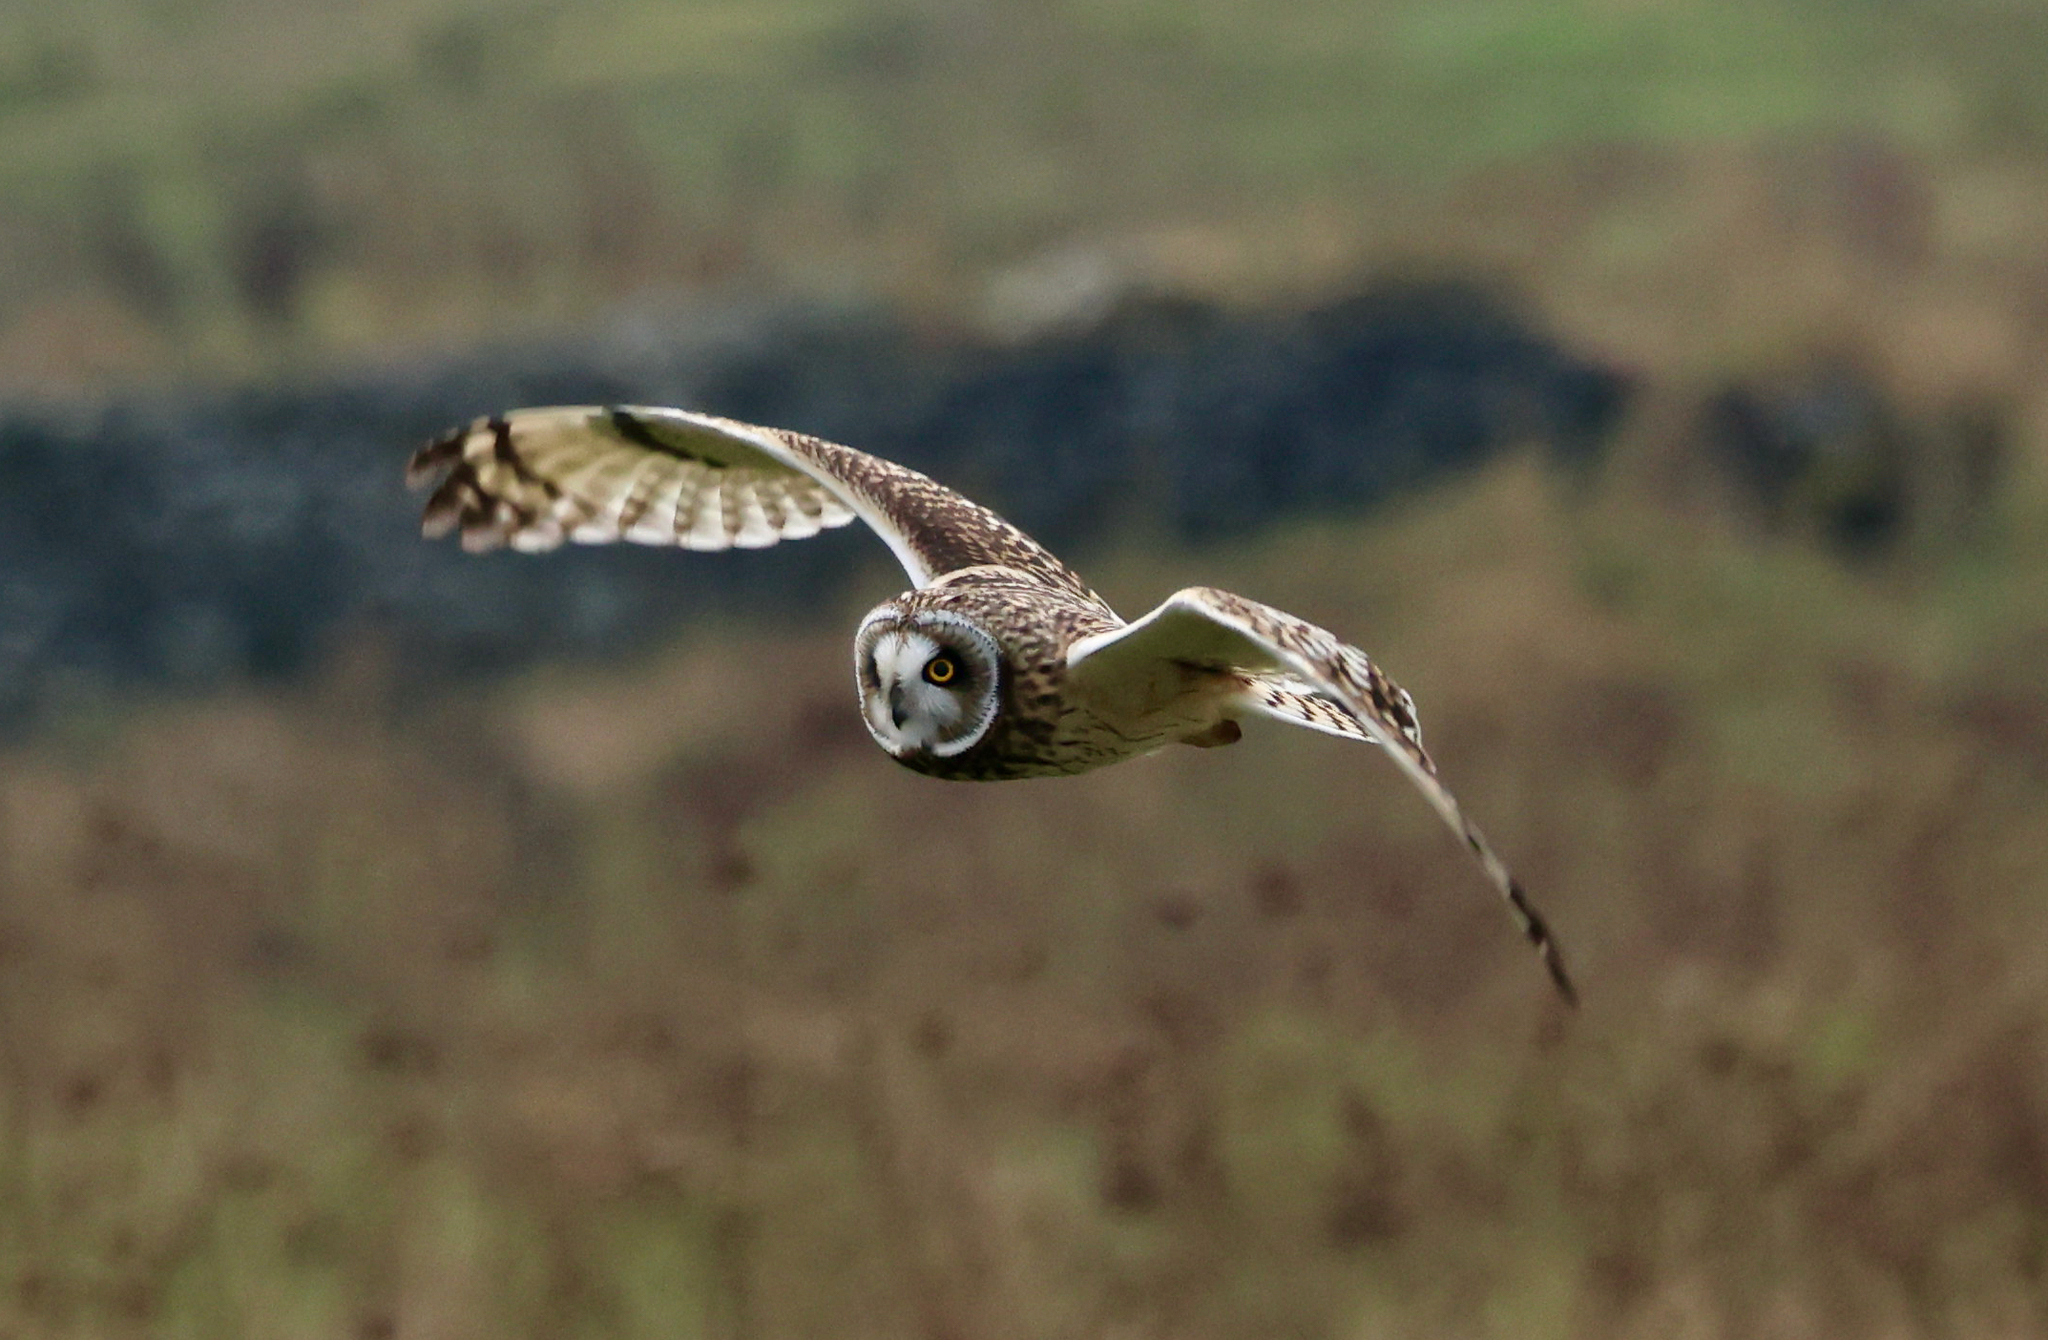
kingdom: Animalia
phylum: Chordata
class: Aves
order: Strigiformes
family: Strigidae
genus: Asio
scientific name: Asio flammeus
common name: Short-eared owl
